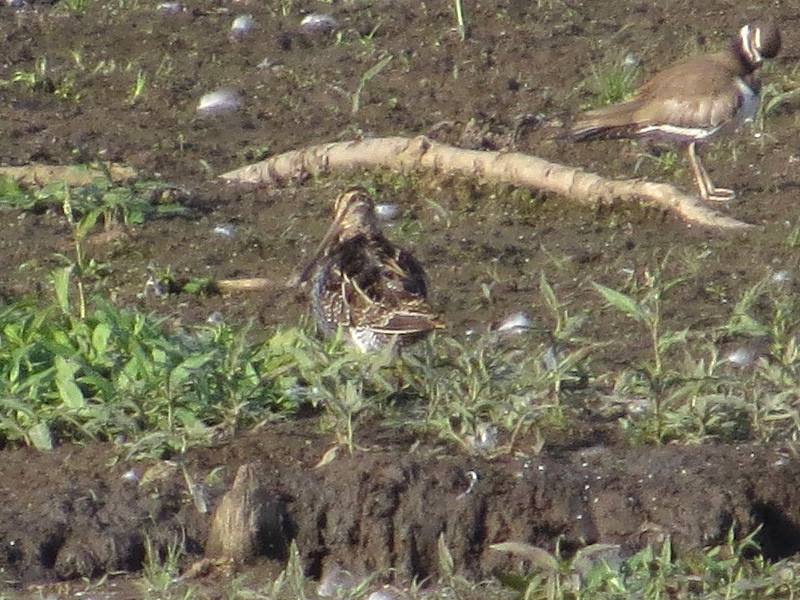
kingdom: Animalia
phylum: Chordata
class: Aves
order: Charadriiformes
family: Scolopacidae
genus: Gallinago
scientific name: Gallinago delicata
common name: Wilson's snipe
